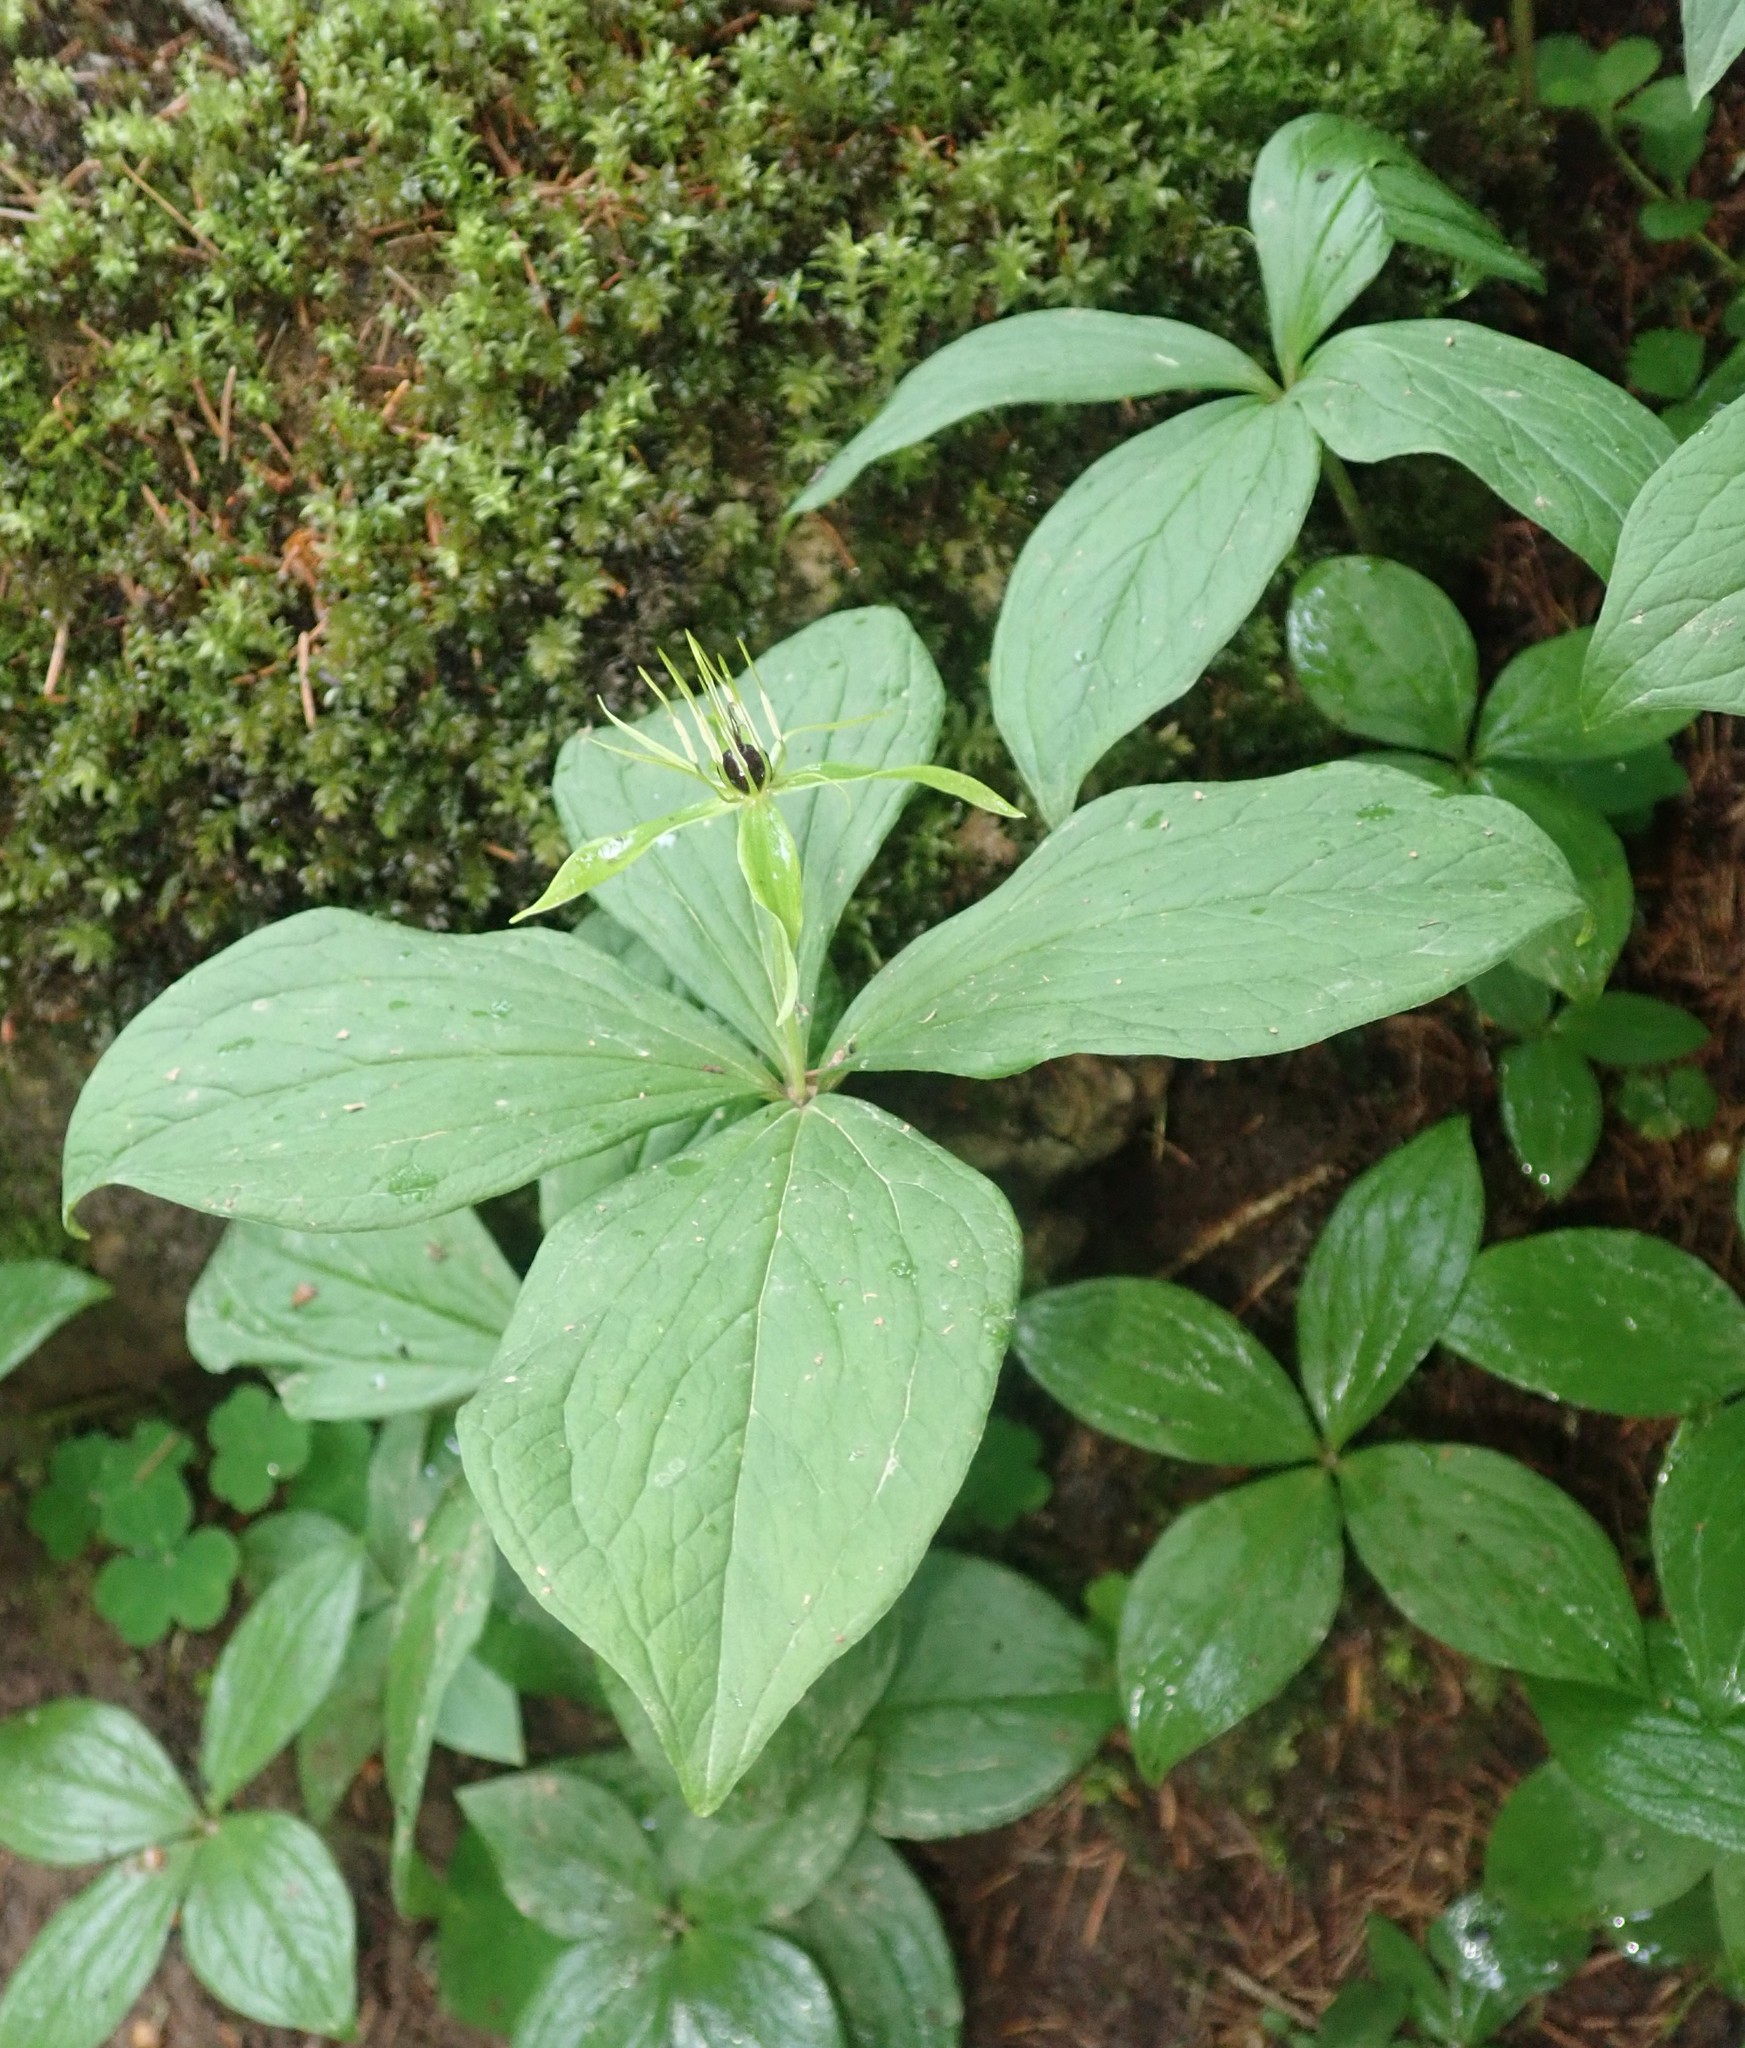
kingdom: Plantae
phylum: Tracheophyta
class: Liliopsida
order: Liliales
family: Melanthiaceae
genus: Paris
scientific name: Paris quadrifolia
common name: Herb-paris
